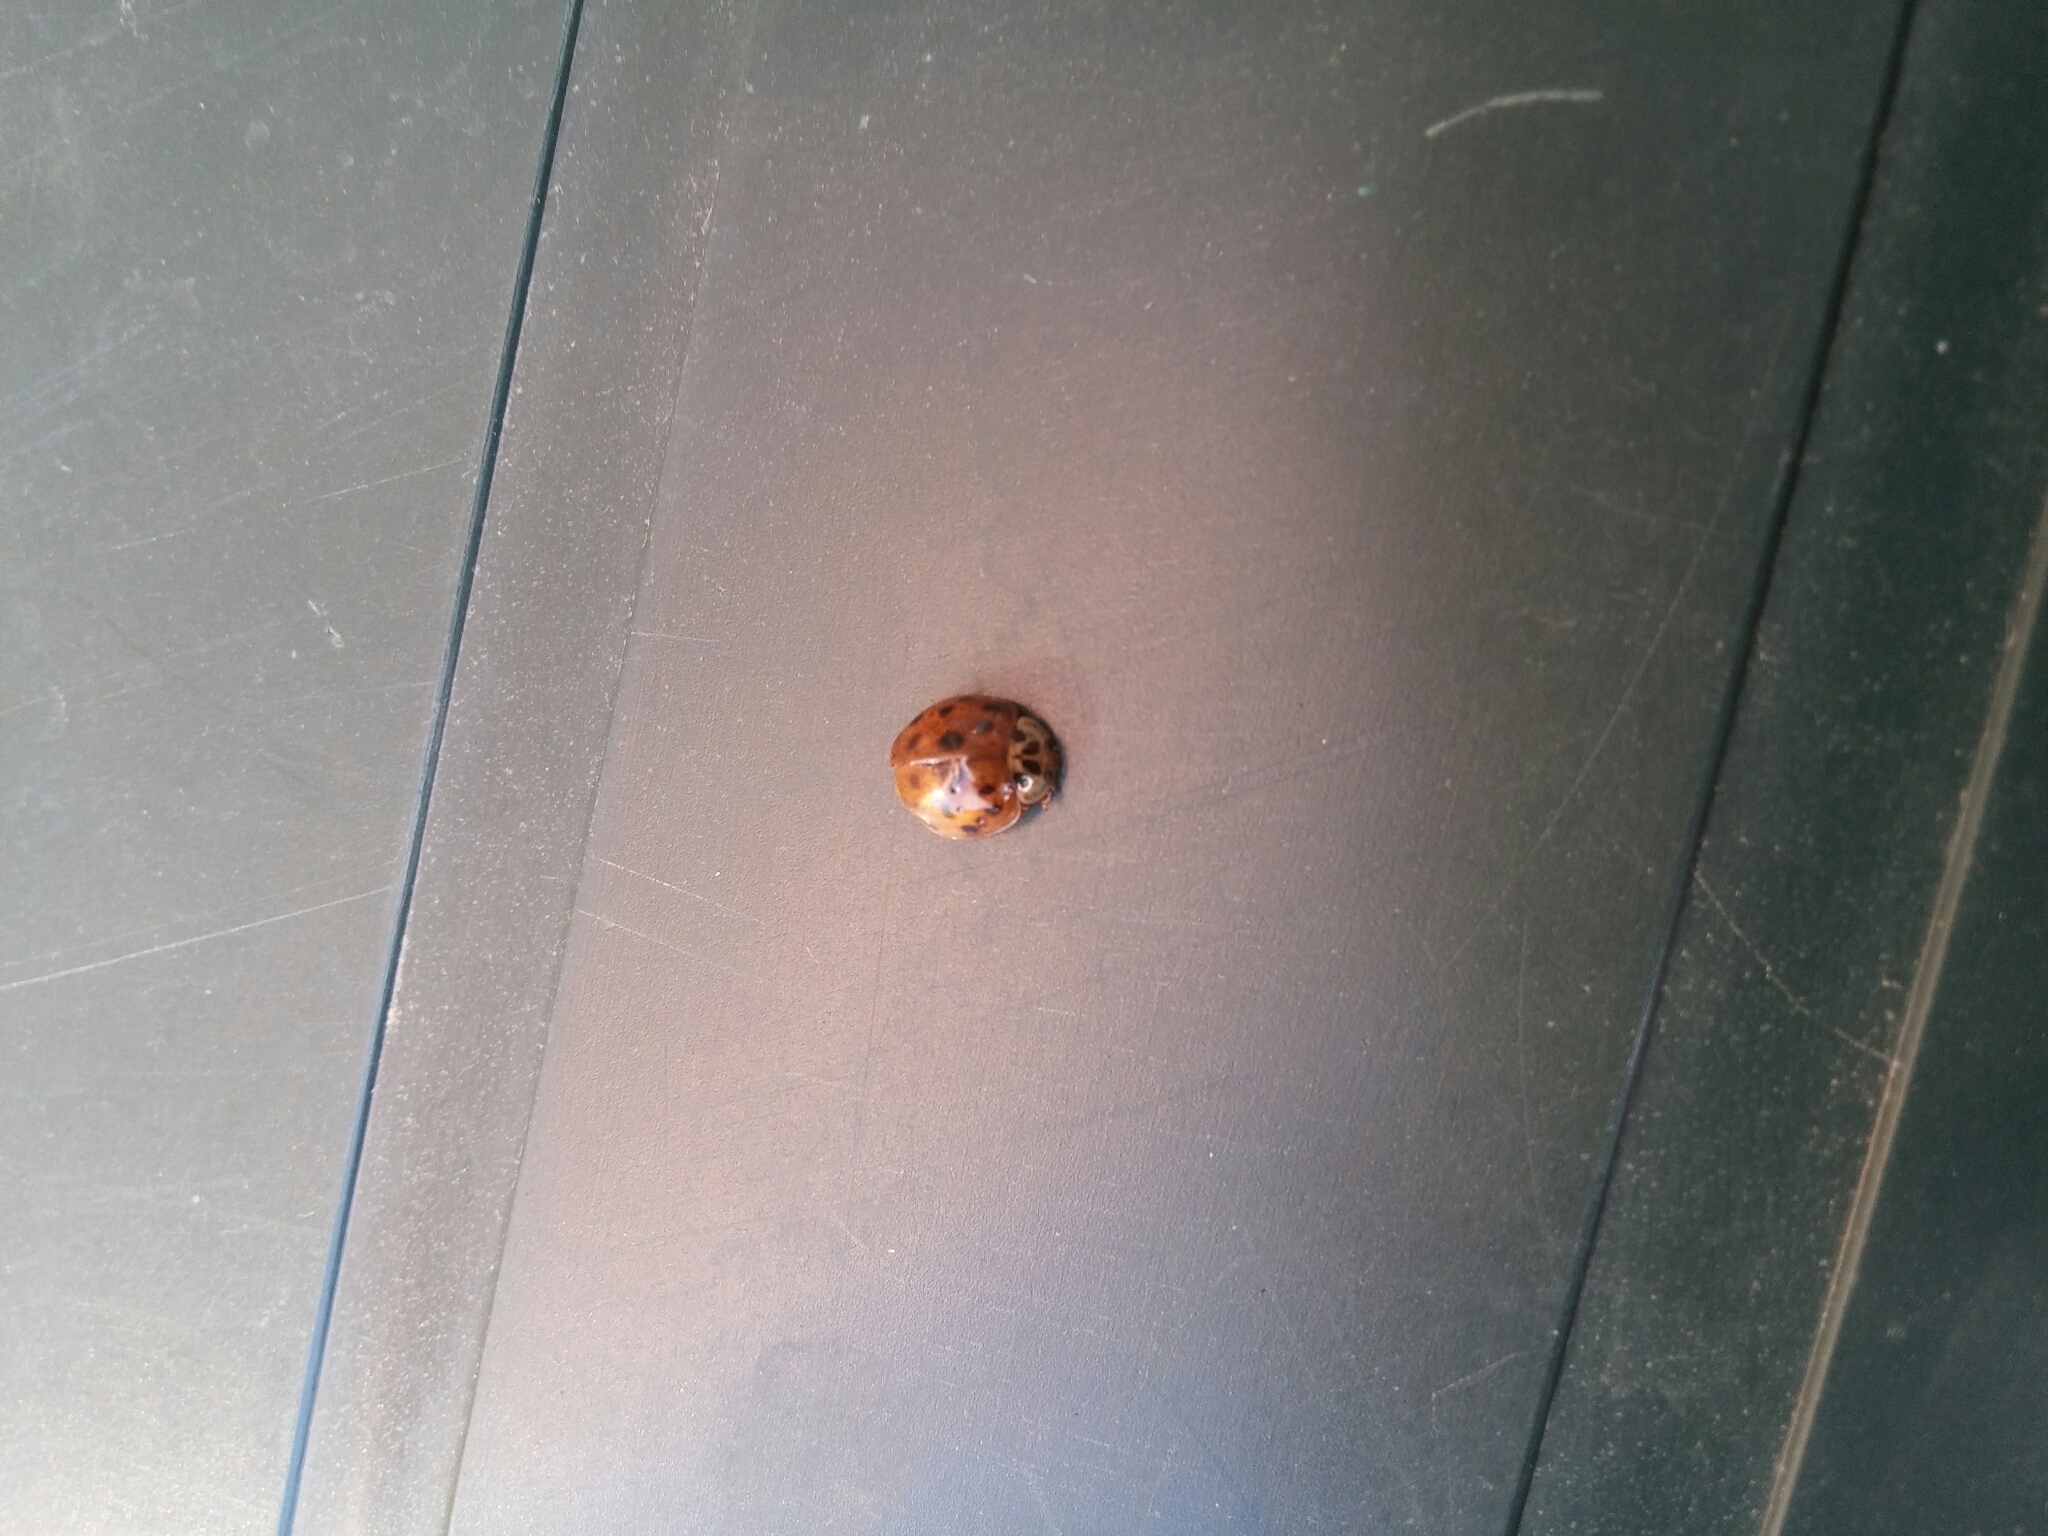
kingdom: Animalia
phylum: Arthropoda
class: Insecta
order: Coleoptera
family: Coccinellidae
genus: Harmonia
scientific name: Harmonia axyridis
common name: Harlequin ladybird
